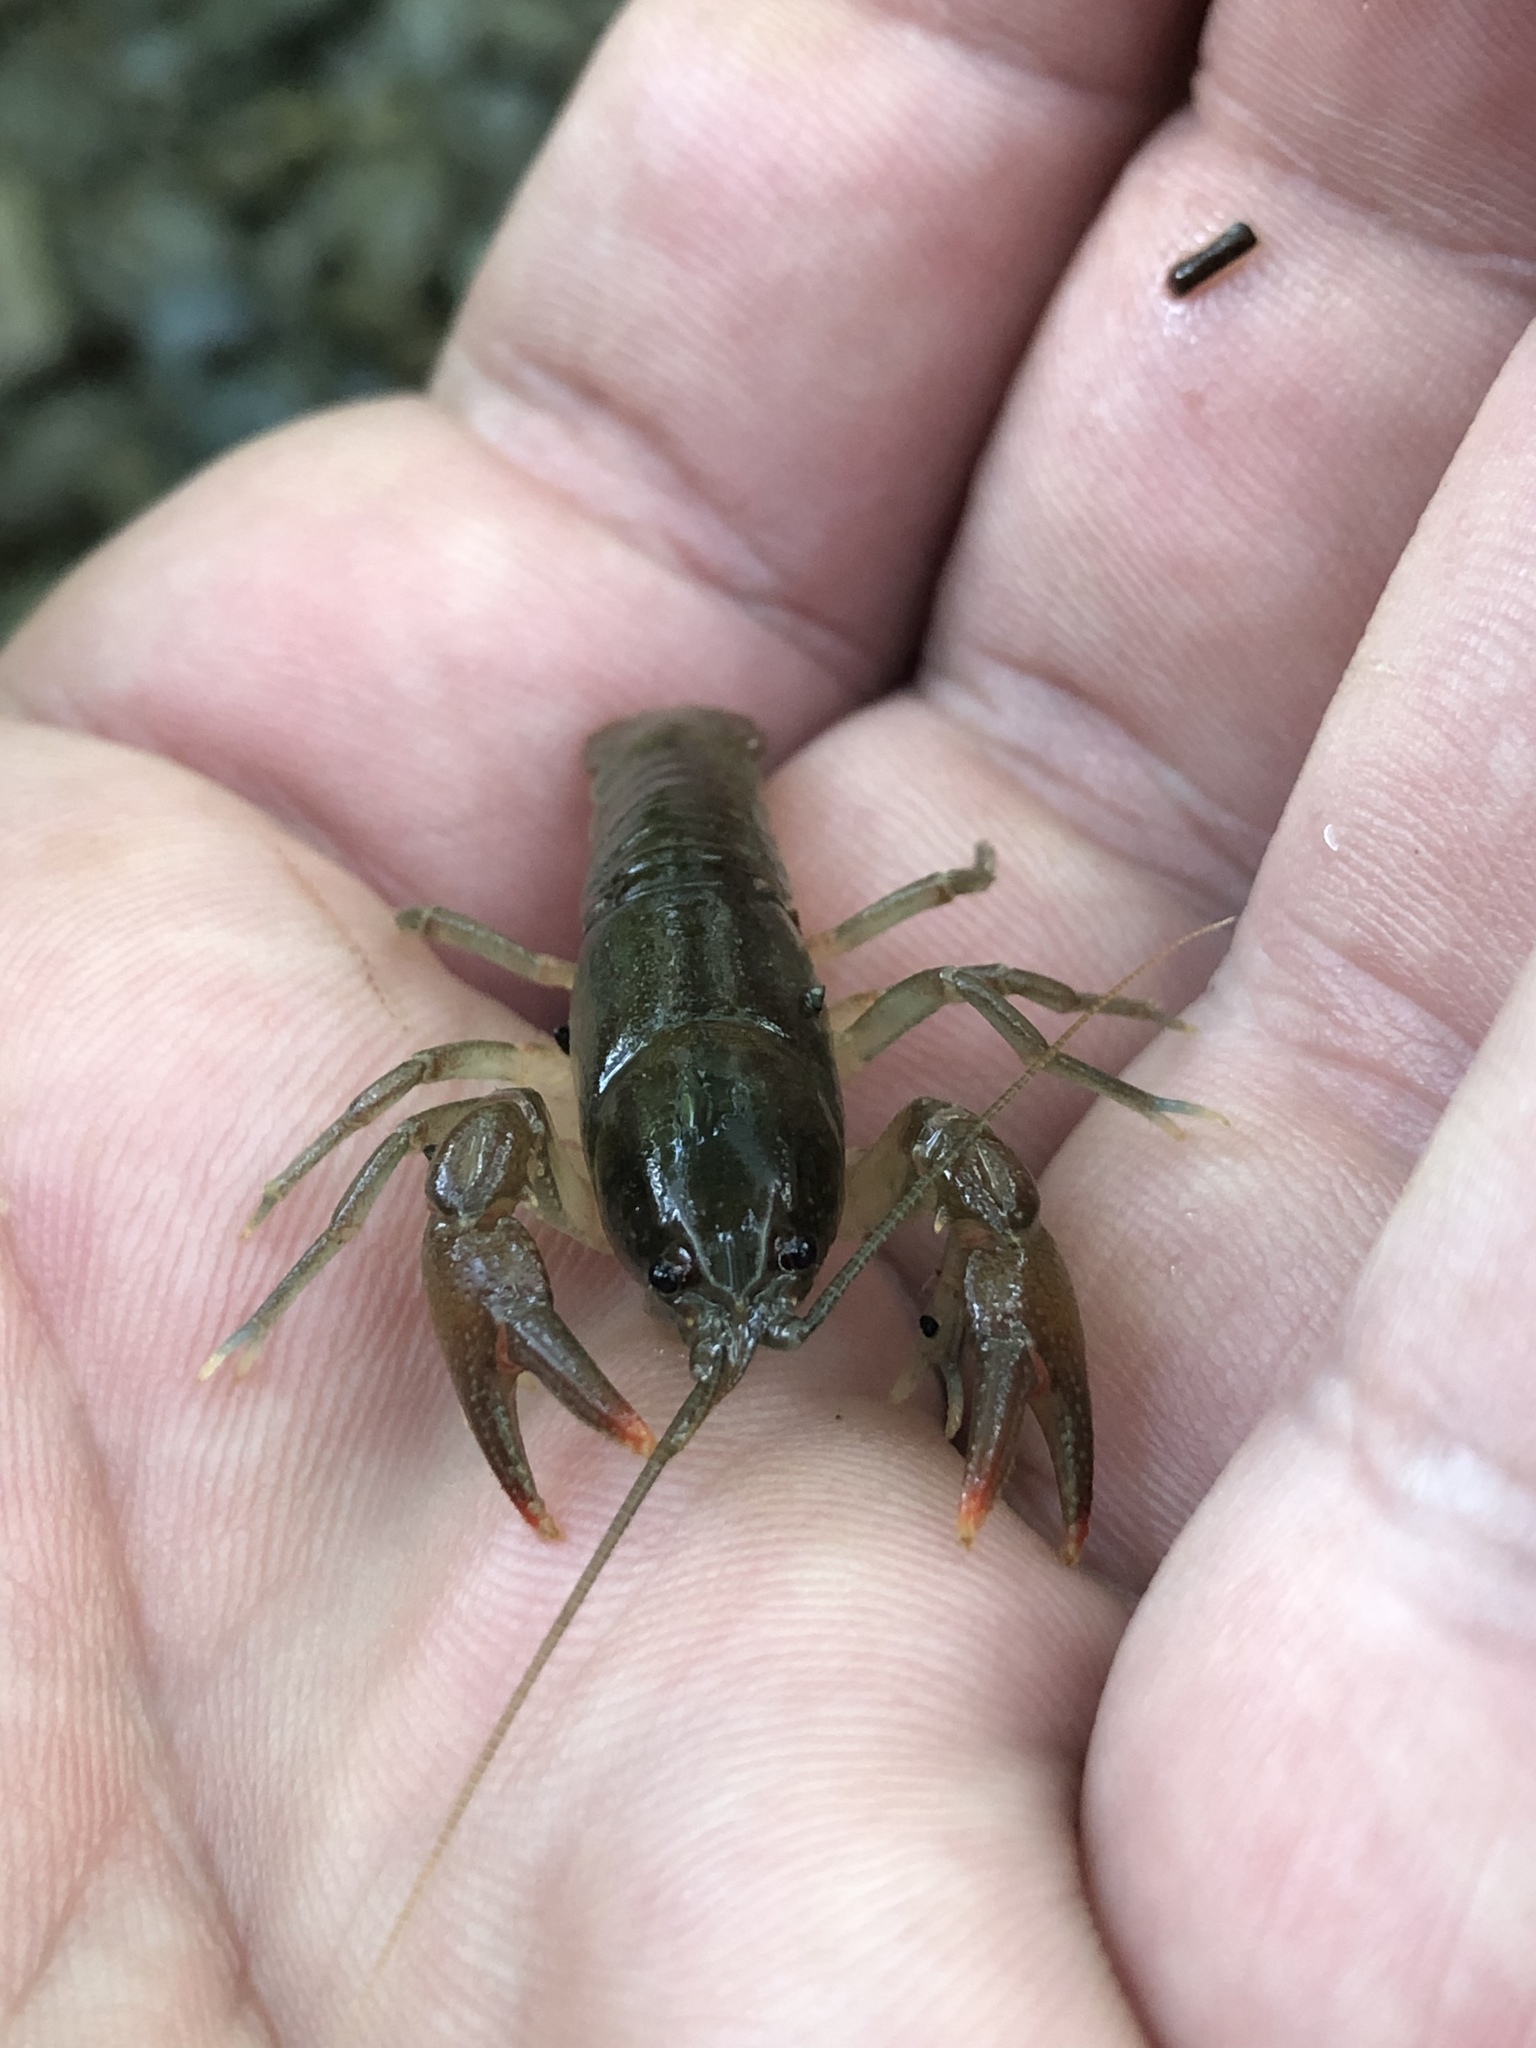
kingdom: Animalia
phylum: Arthropoda
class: Malacostraca
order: Decapoda
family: Cambaridae
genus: Cambarus
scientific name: Cambarus bartonii
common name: Appalachian brook crayfish
